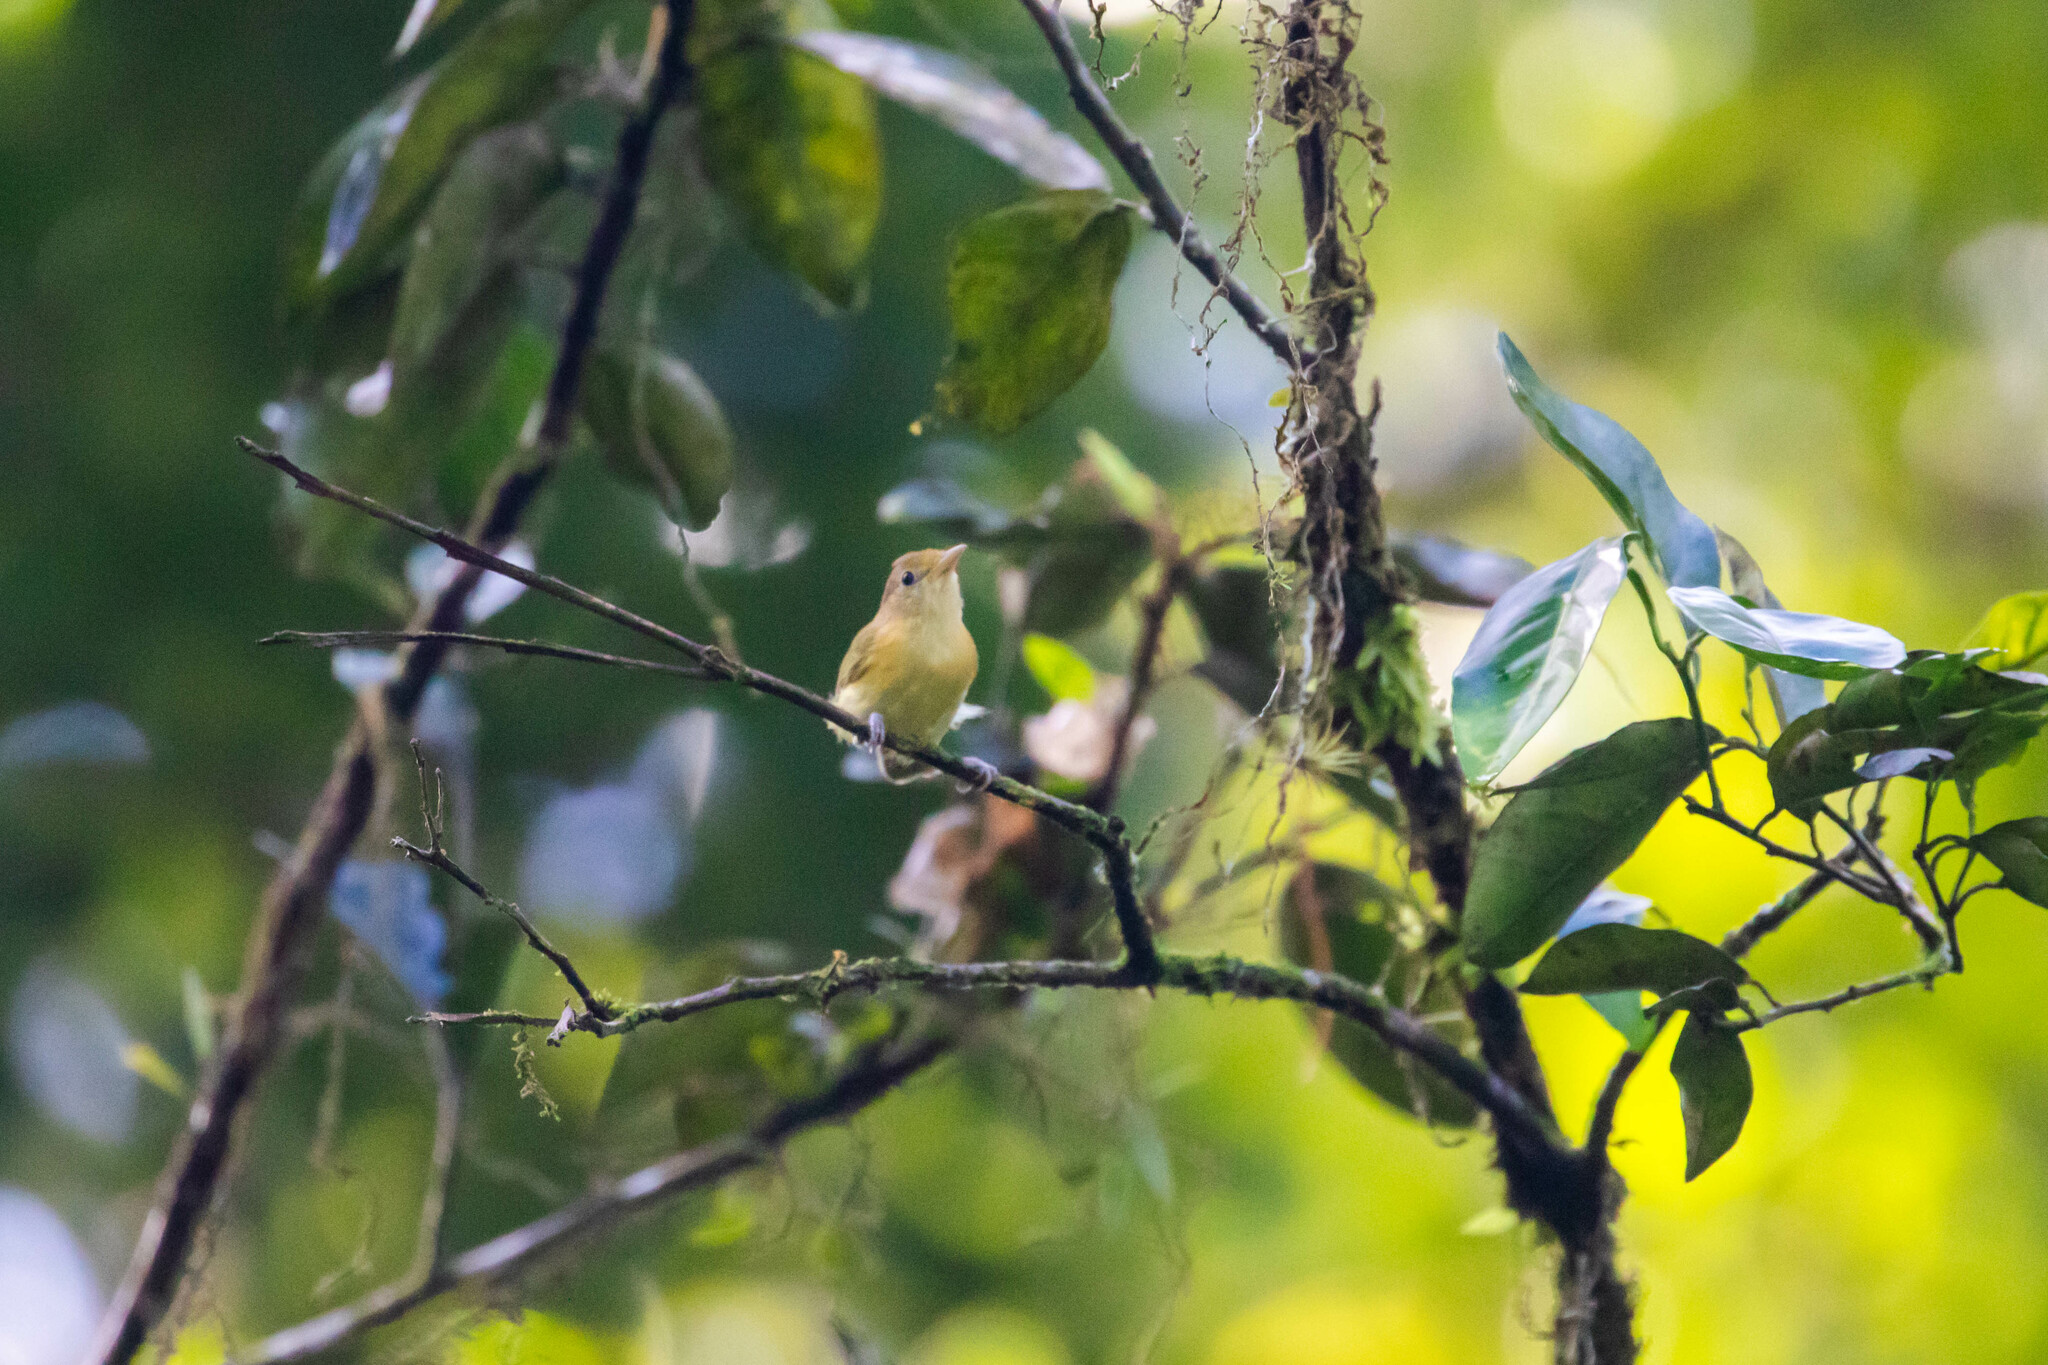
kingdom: Animalia
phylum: Chordata
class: Aves
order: Passeriformes
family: Vireonidae
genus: Hylophilus
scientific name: Hylophilus aurantiifrons
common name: Golden-fronted greenlet
